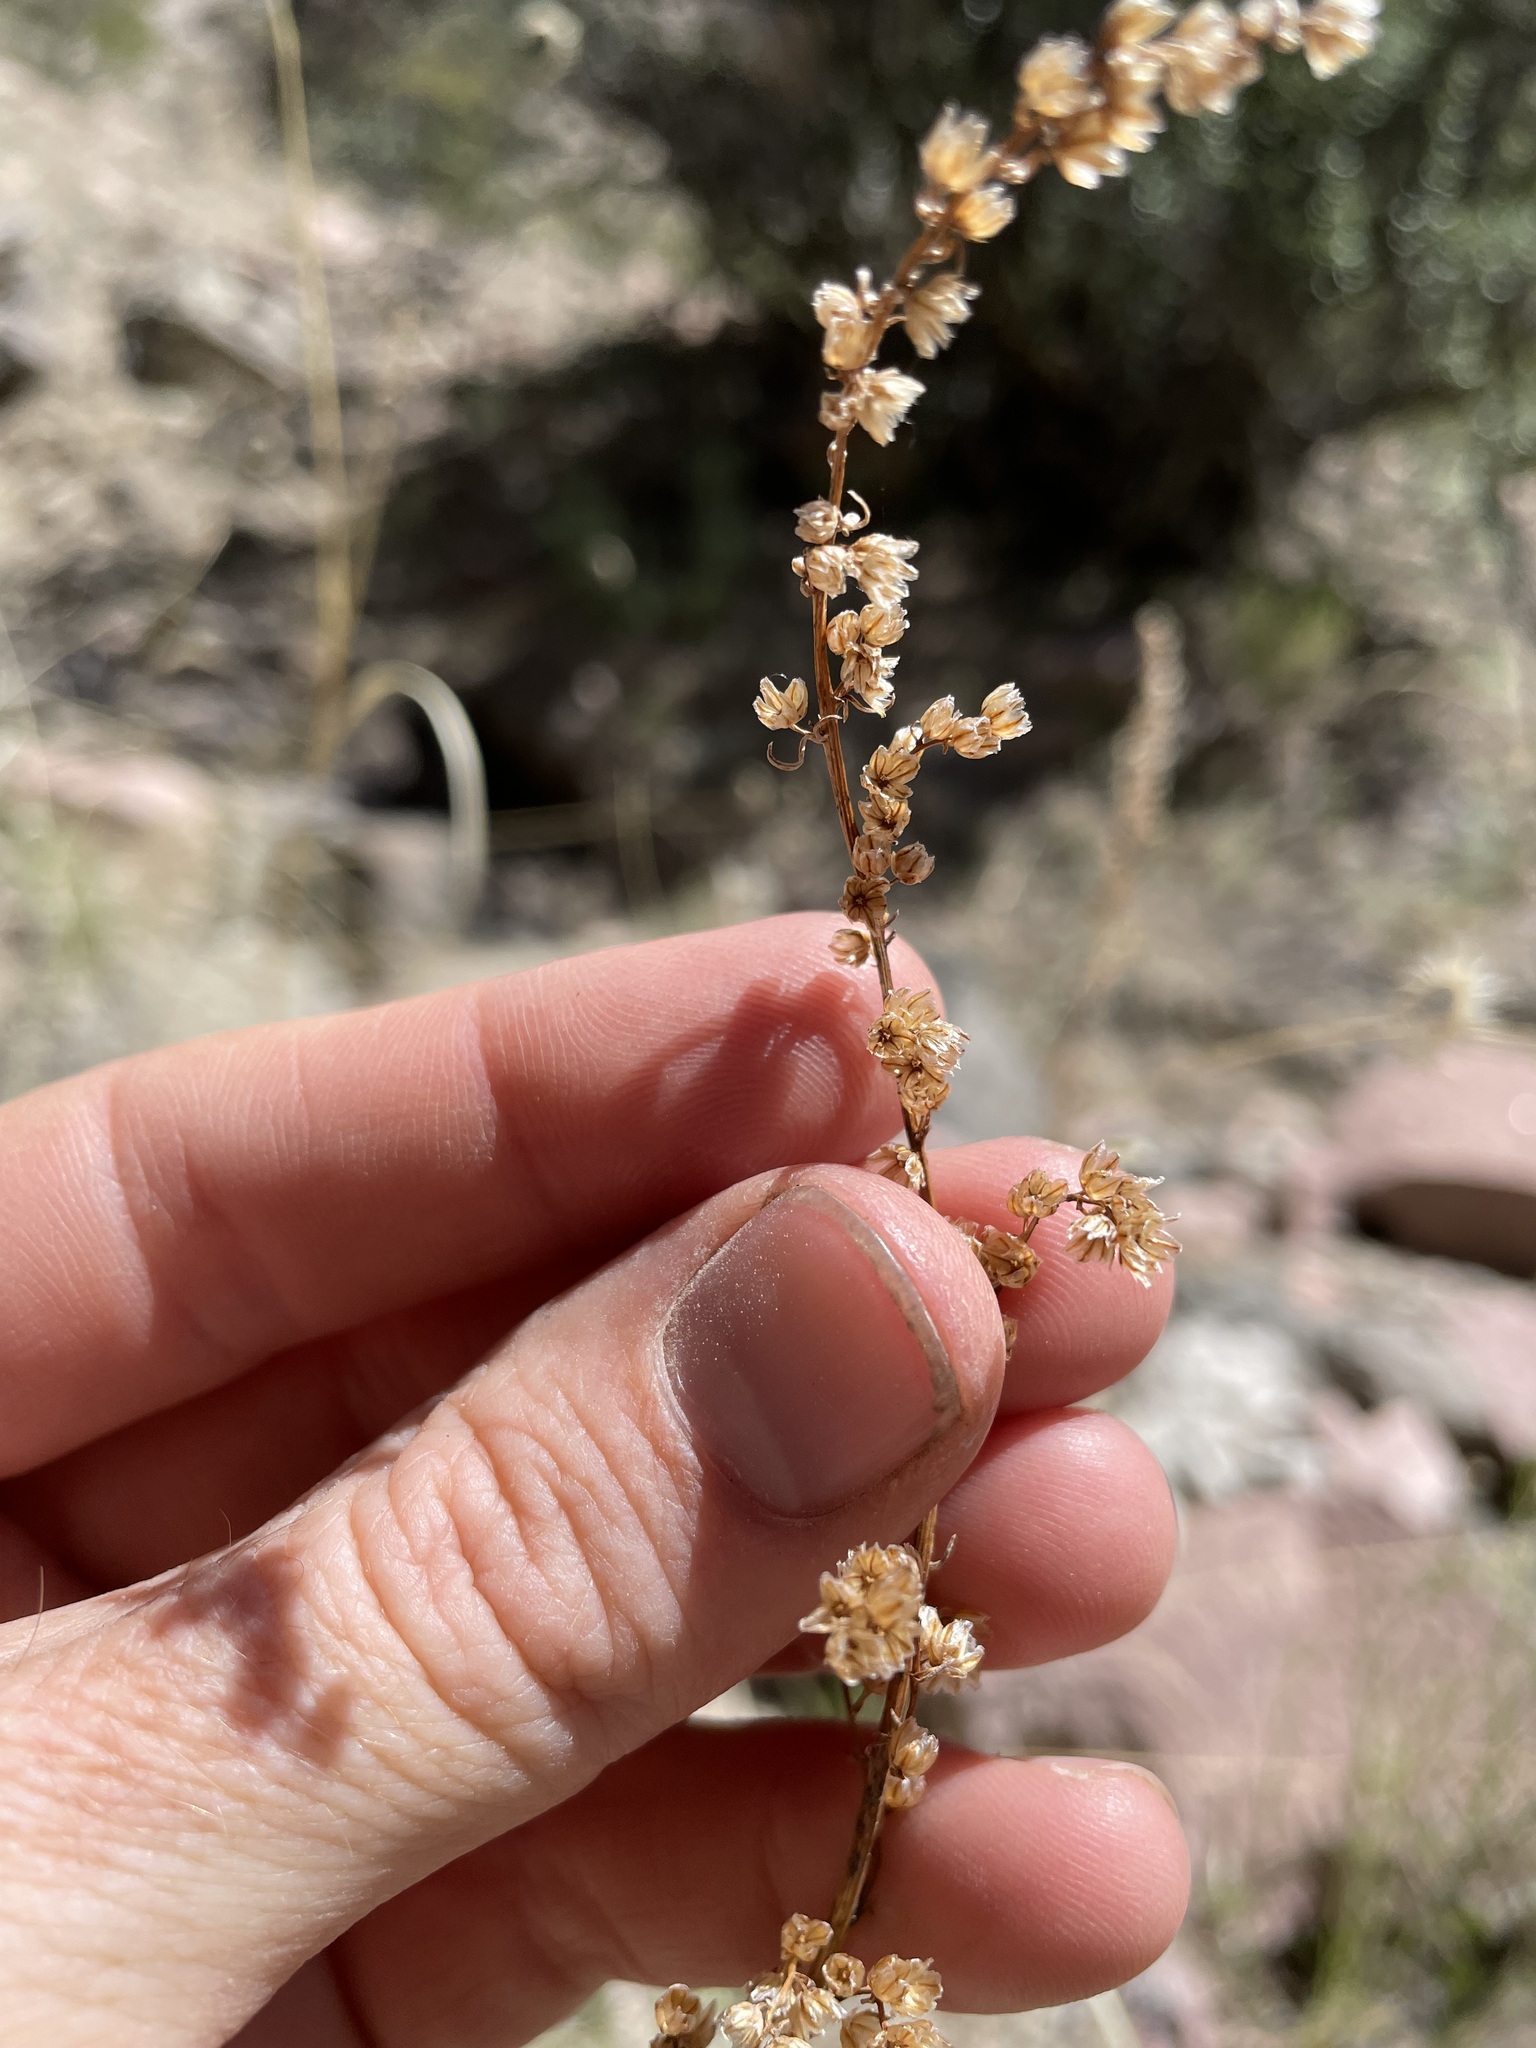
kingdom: Plantae
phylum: Tracheophyta
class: Magnoliopsida
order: Asterales
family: Asteraceae
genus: Artemisia
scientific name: Artemisia campestris
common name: Field wormwood
